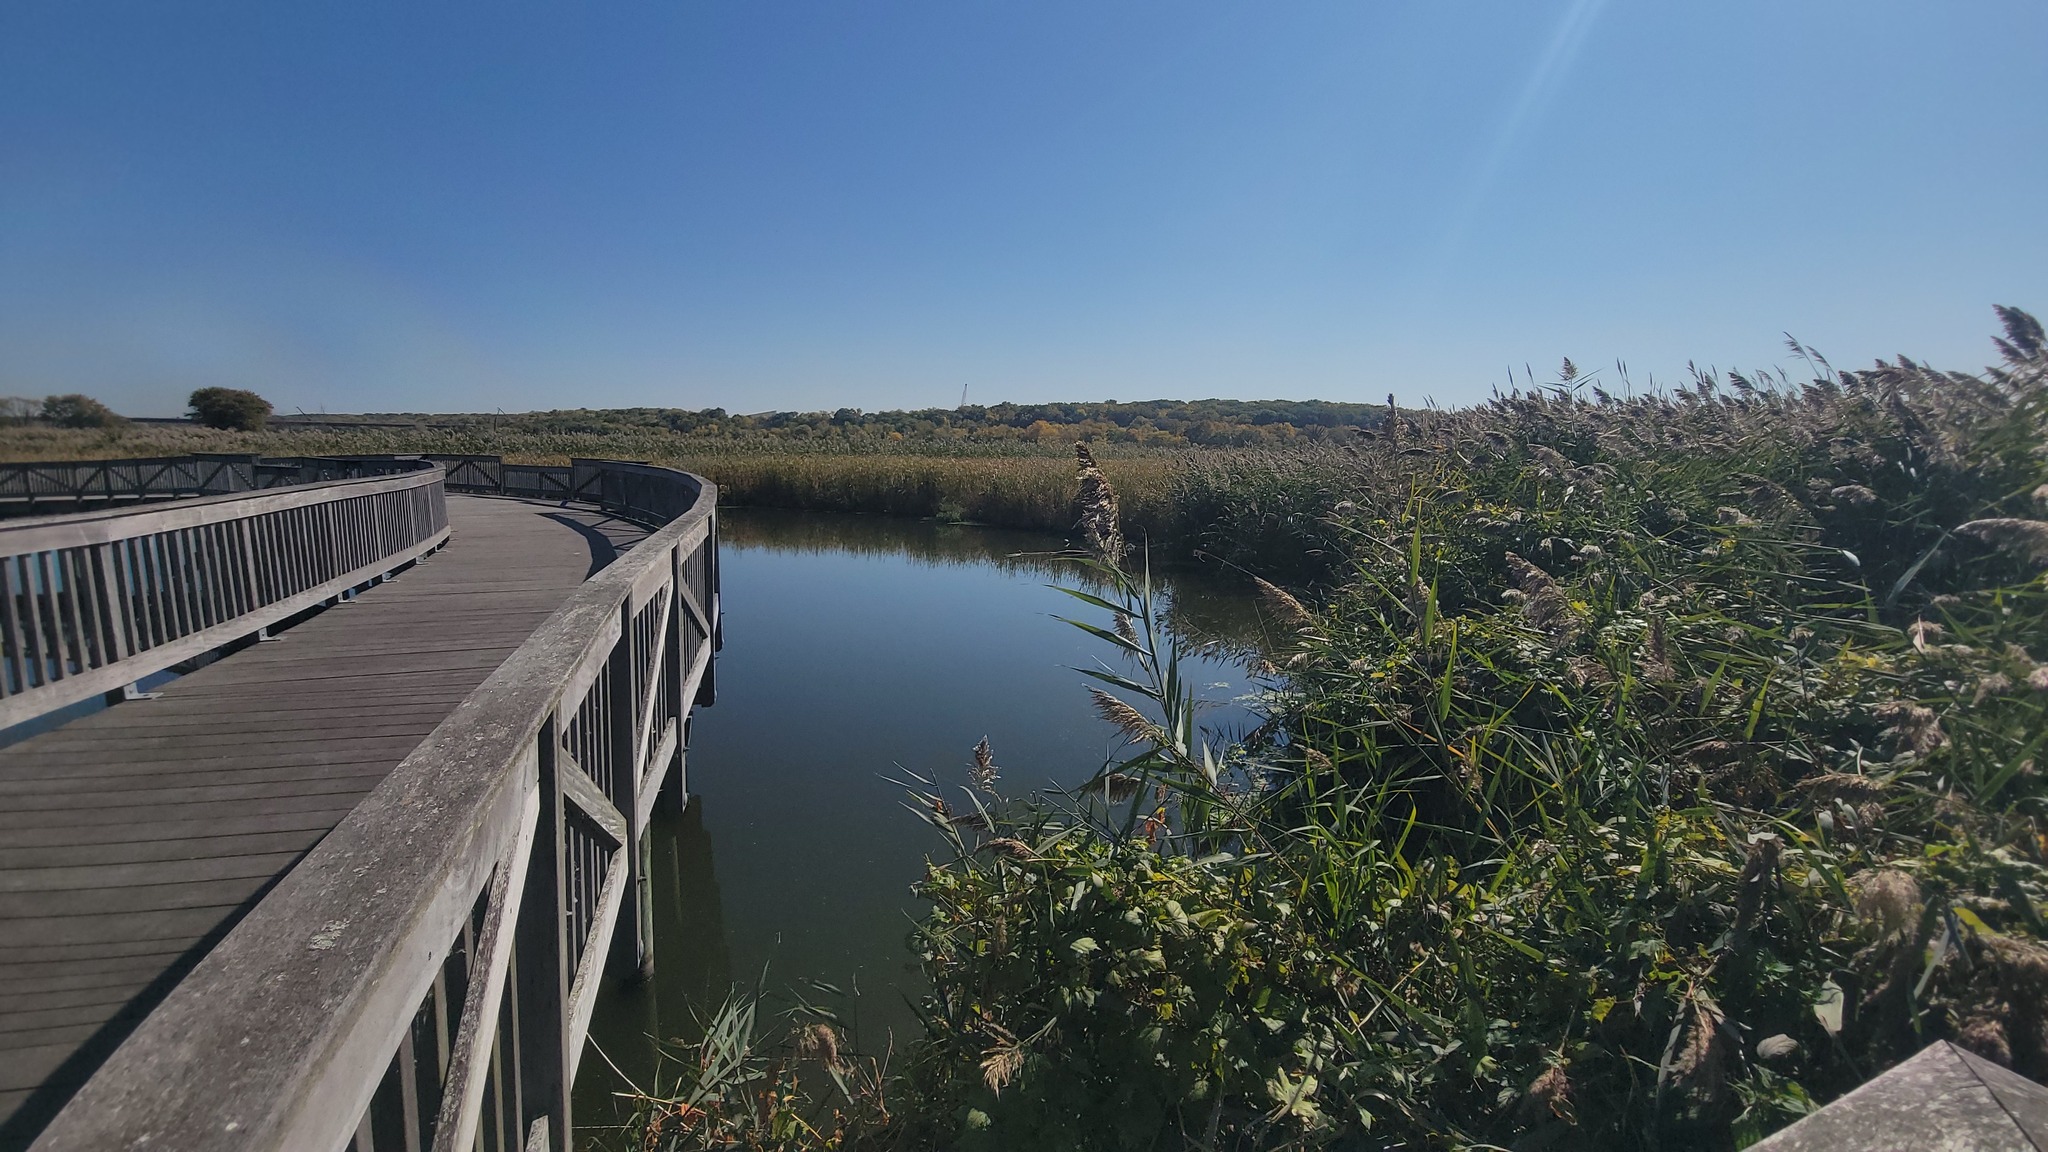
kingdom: Plantae
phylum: Tracheophyta
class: Liliopsida
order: Poales
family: Poaceae
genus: Phragmites
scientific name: Phragmites australis
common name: Common reed
